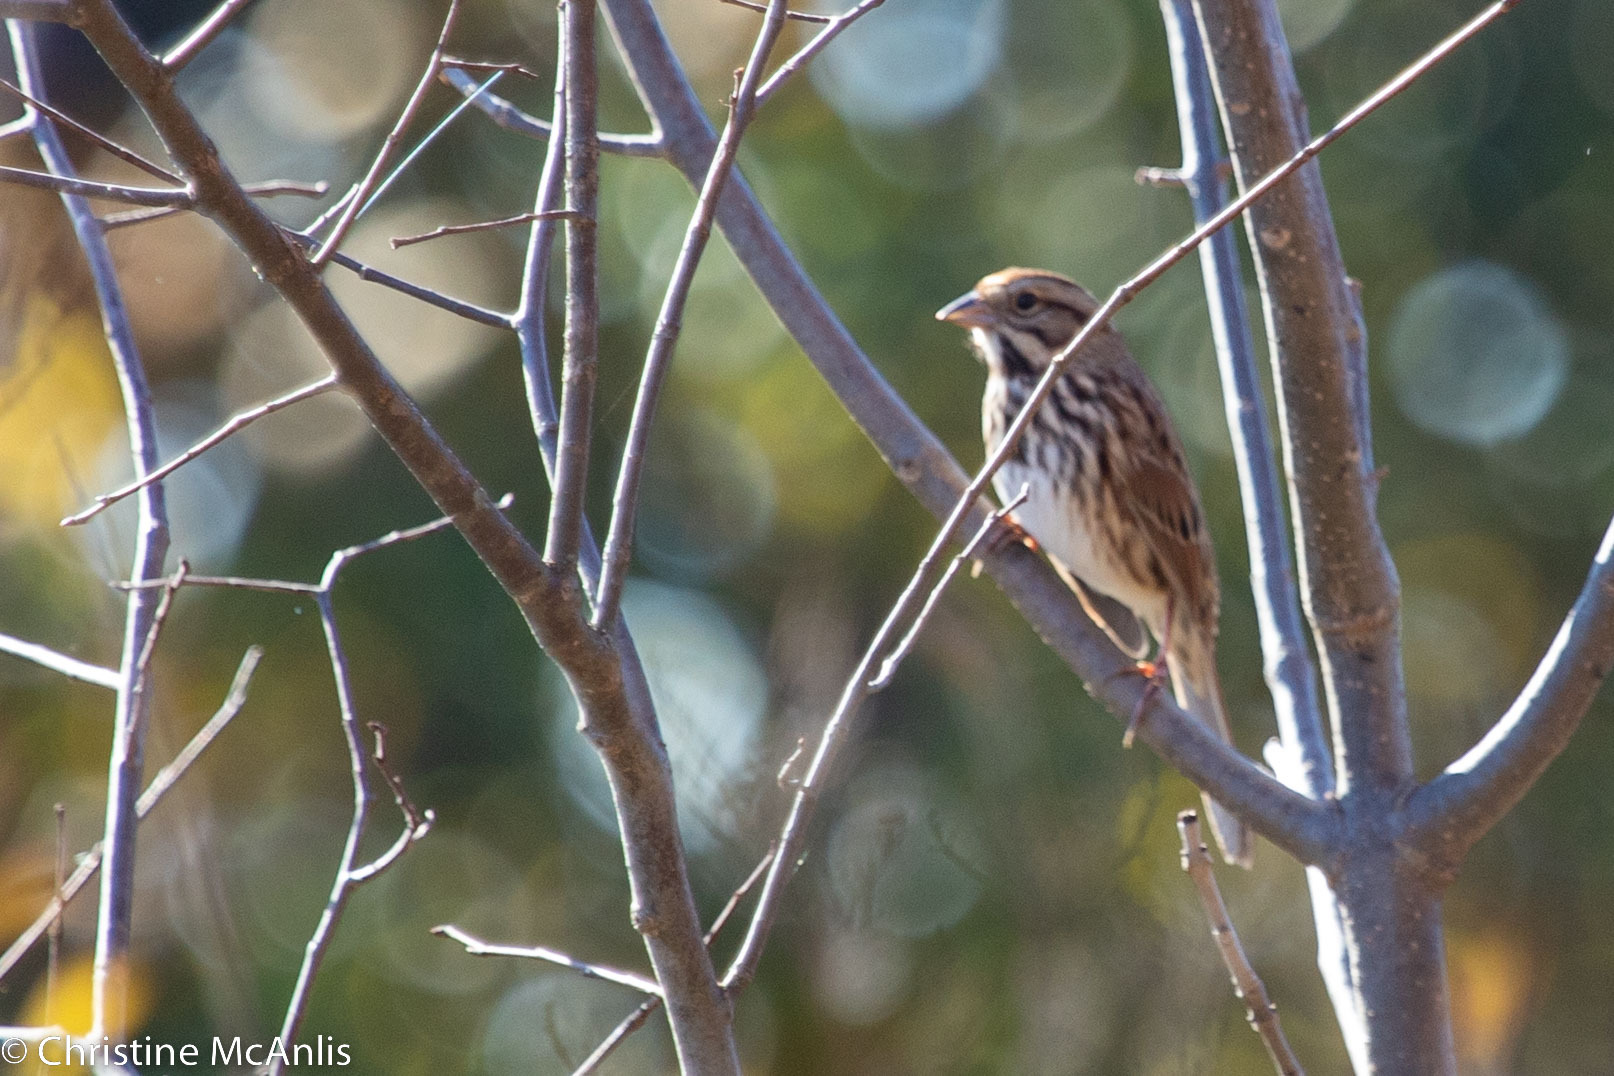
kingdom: Animalia
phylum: Chordata
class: Aves
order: Passeriformes
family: Passerellidae
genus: Melospiza
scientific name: Melospiza melodia
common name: Song sparrow
